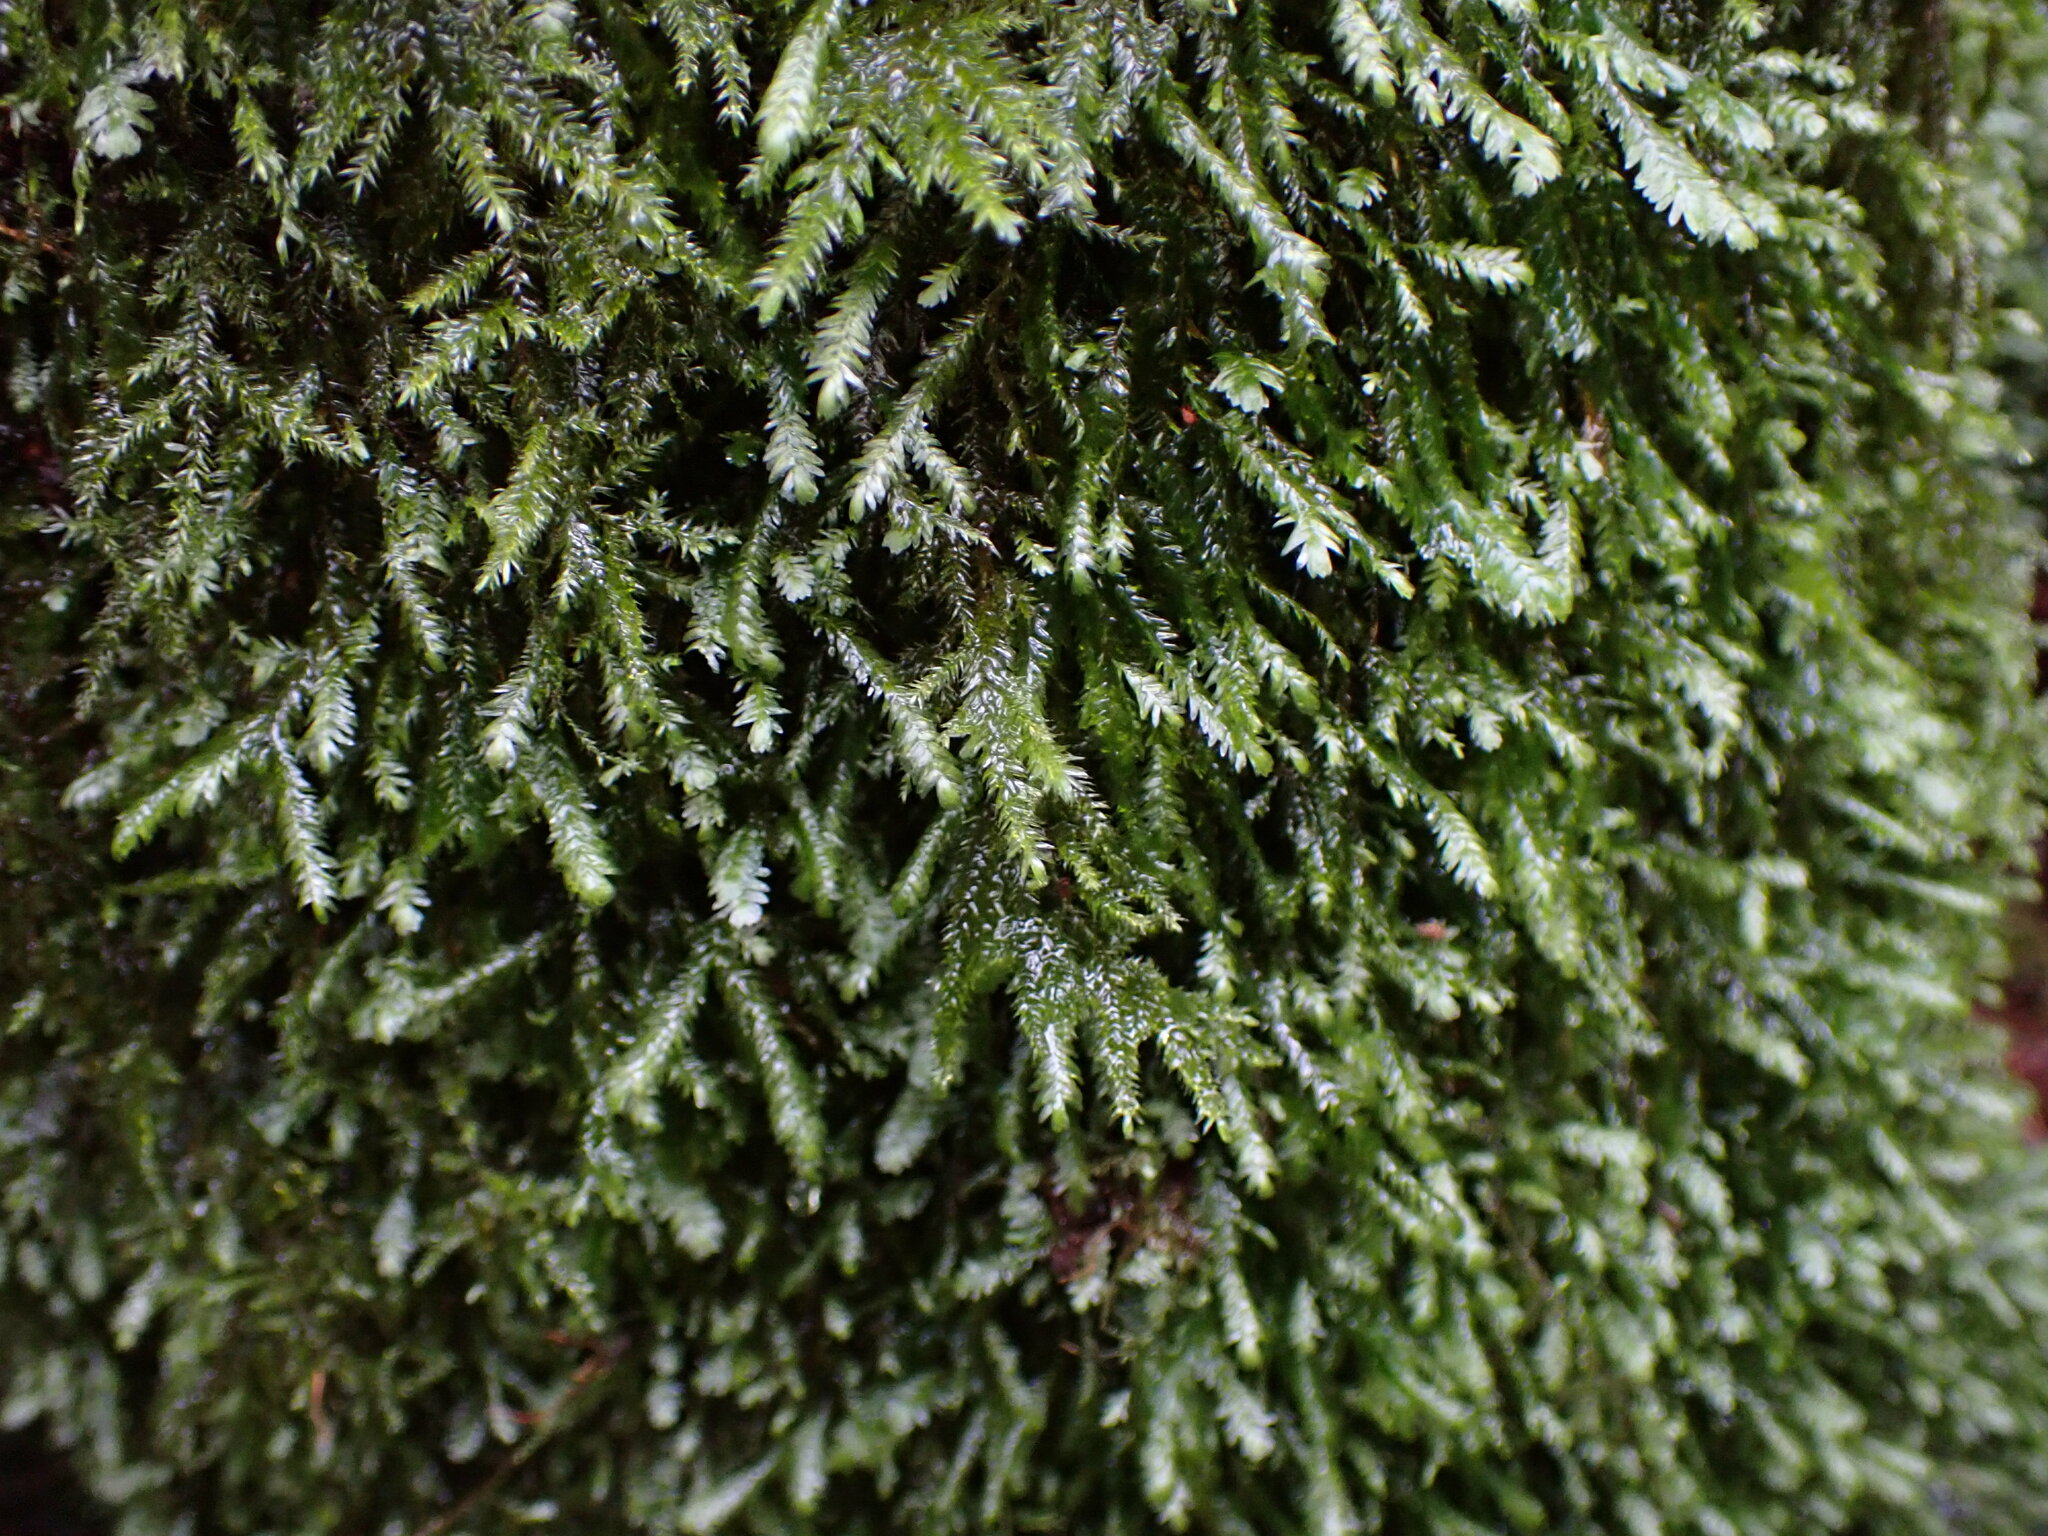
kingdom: Plantae
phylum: Bryophyta
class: Bryopsida
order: Hypnales
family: Neckeraceae
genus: Dannorrisia
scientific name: Dannorrisia bigelovii
